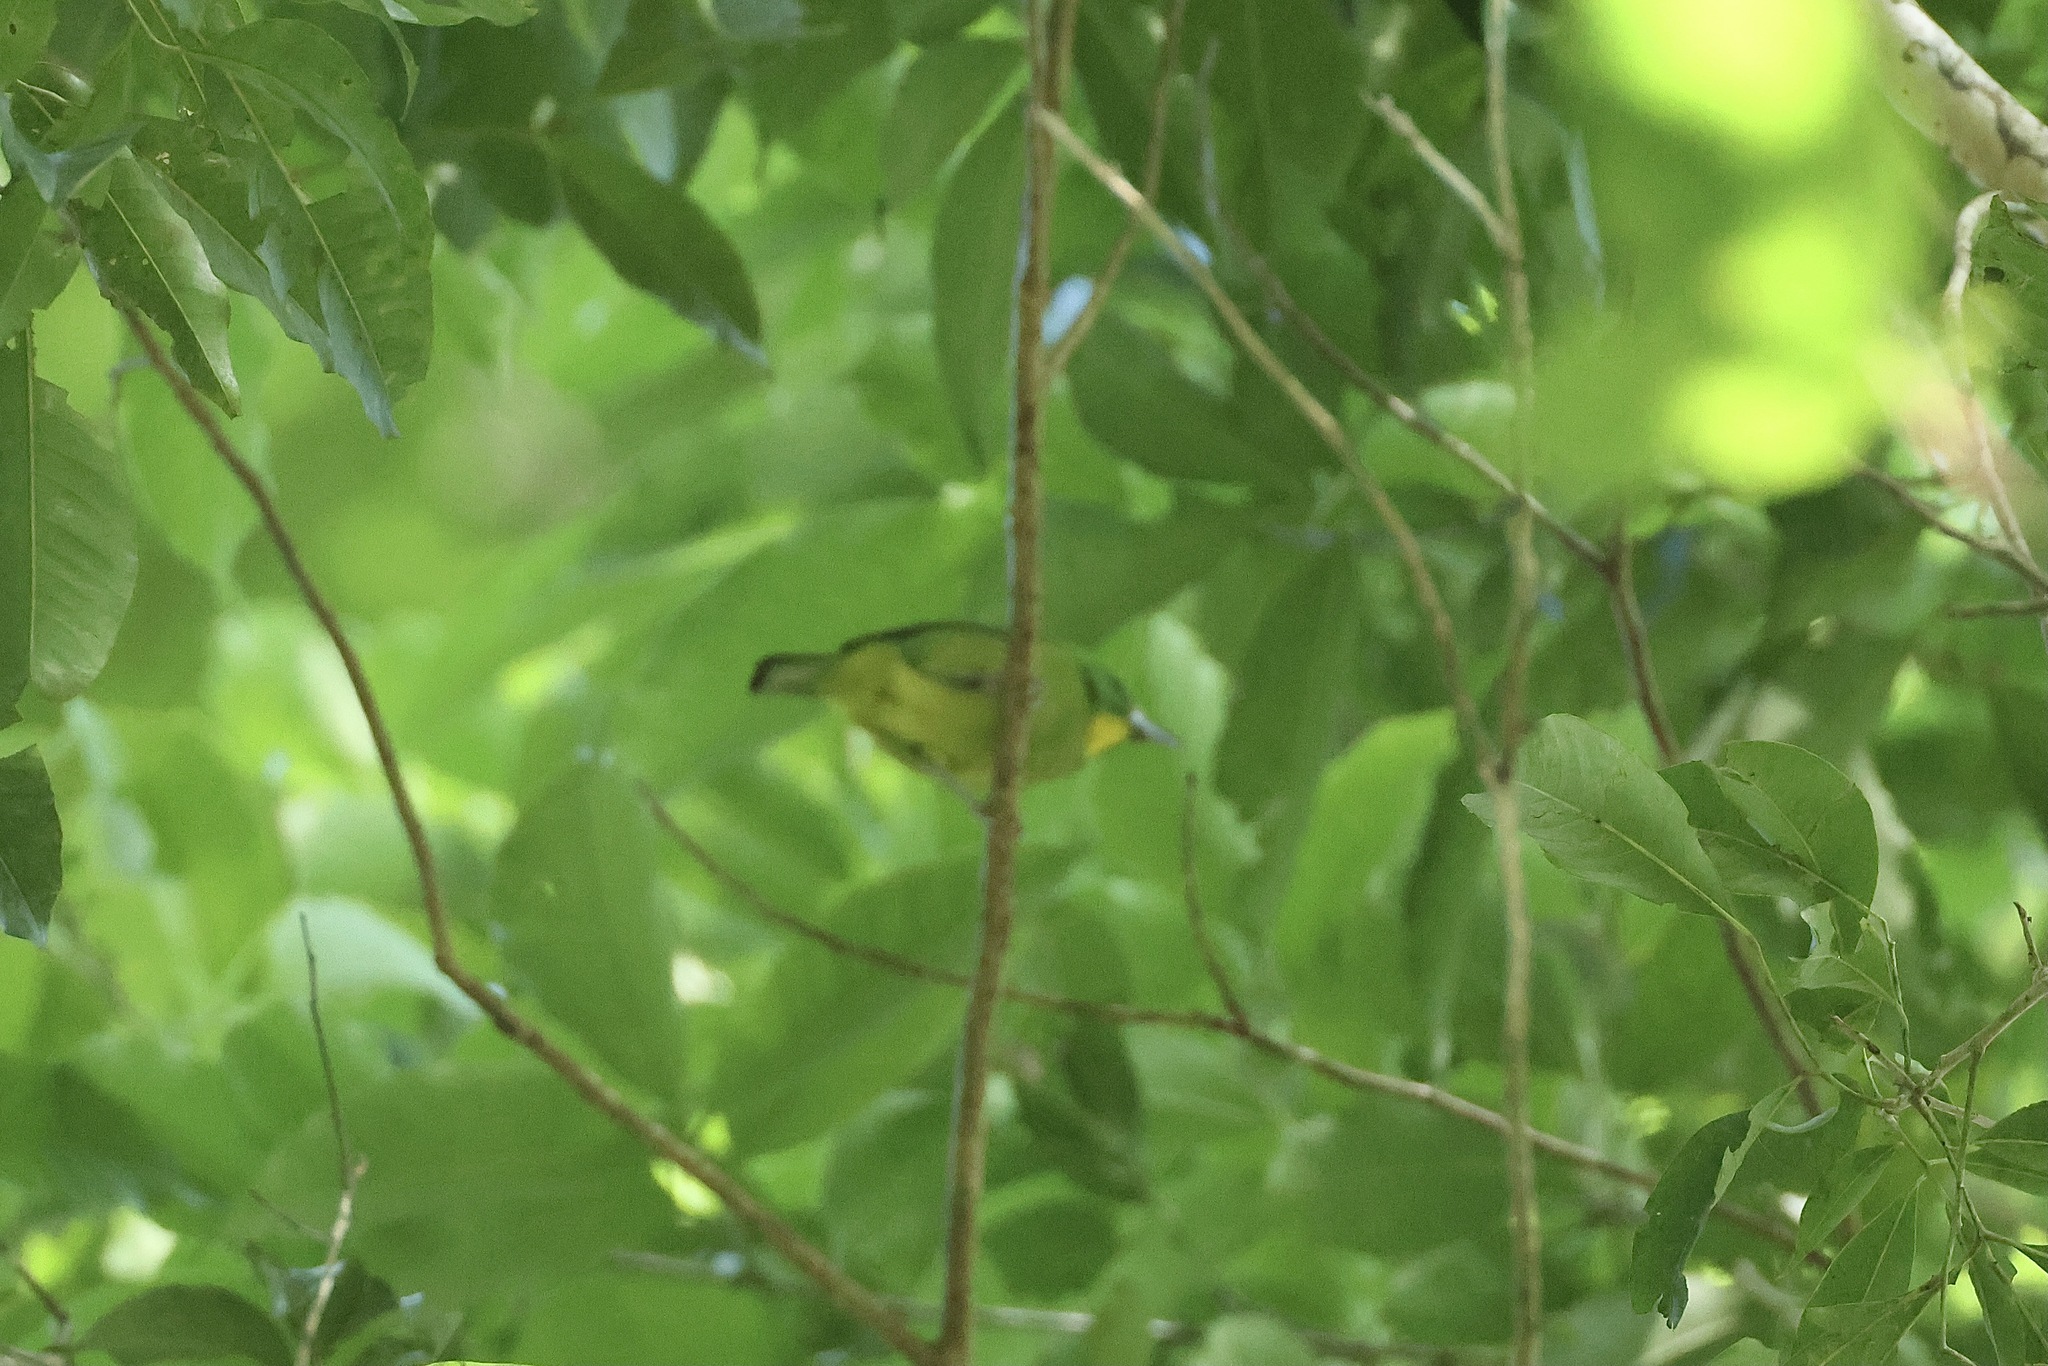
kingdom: Animalia
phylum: Chordata
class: Aves
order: Passeriformes
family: Vireonidae
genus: Vireolanius
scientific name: Vireolanius pulchellus
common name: Green shrike-vireo
